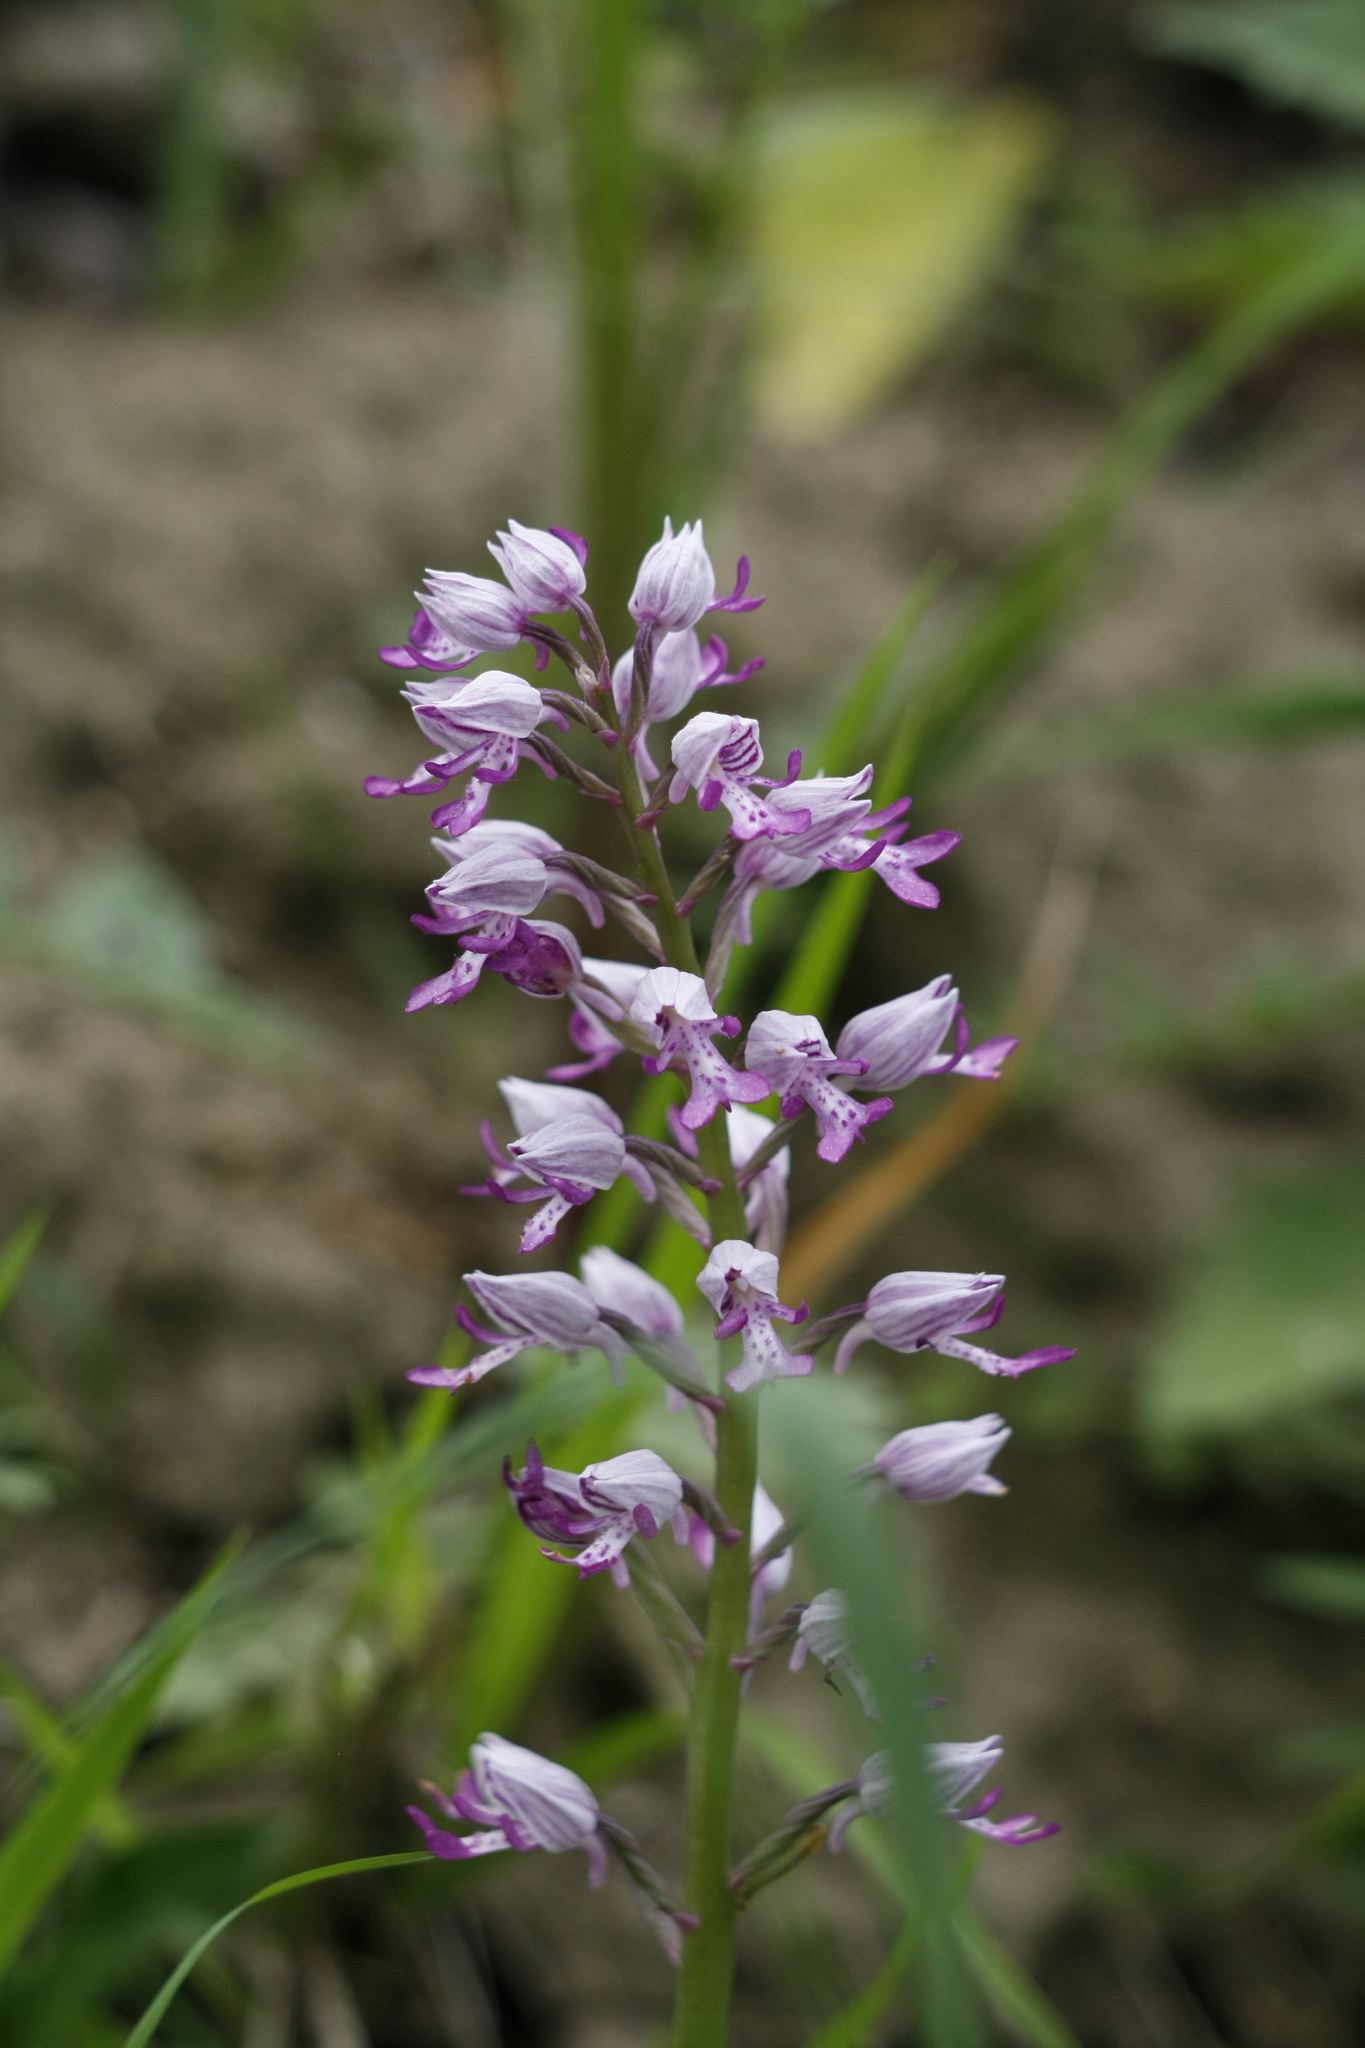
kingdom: Plantae
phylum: Tracheophyta
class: Liliopsida
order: Asparagales
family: Orchidaceae
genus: Orchis
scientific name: Orchis militaris
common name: Military orchid
